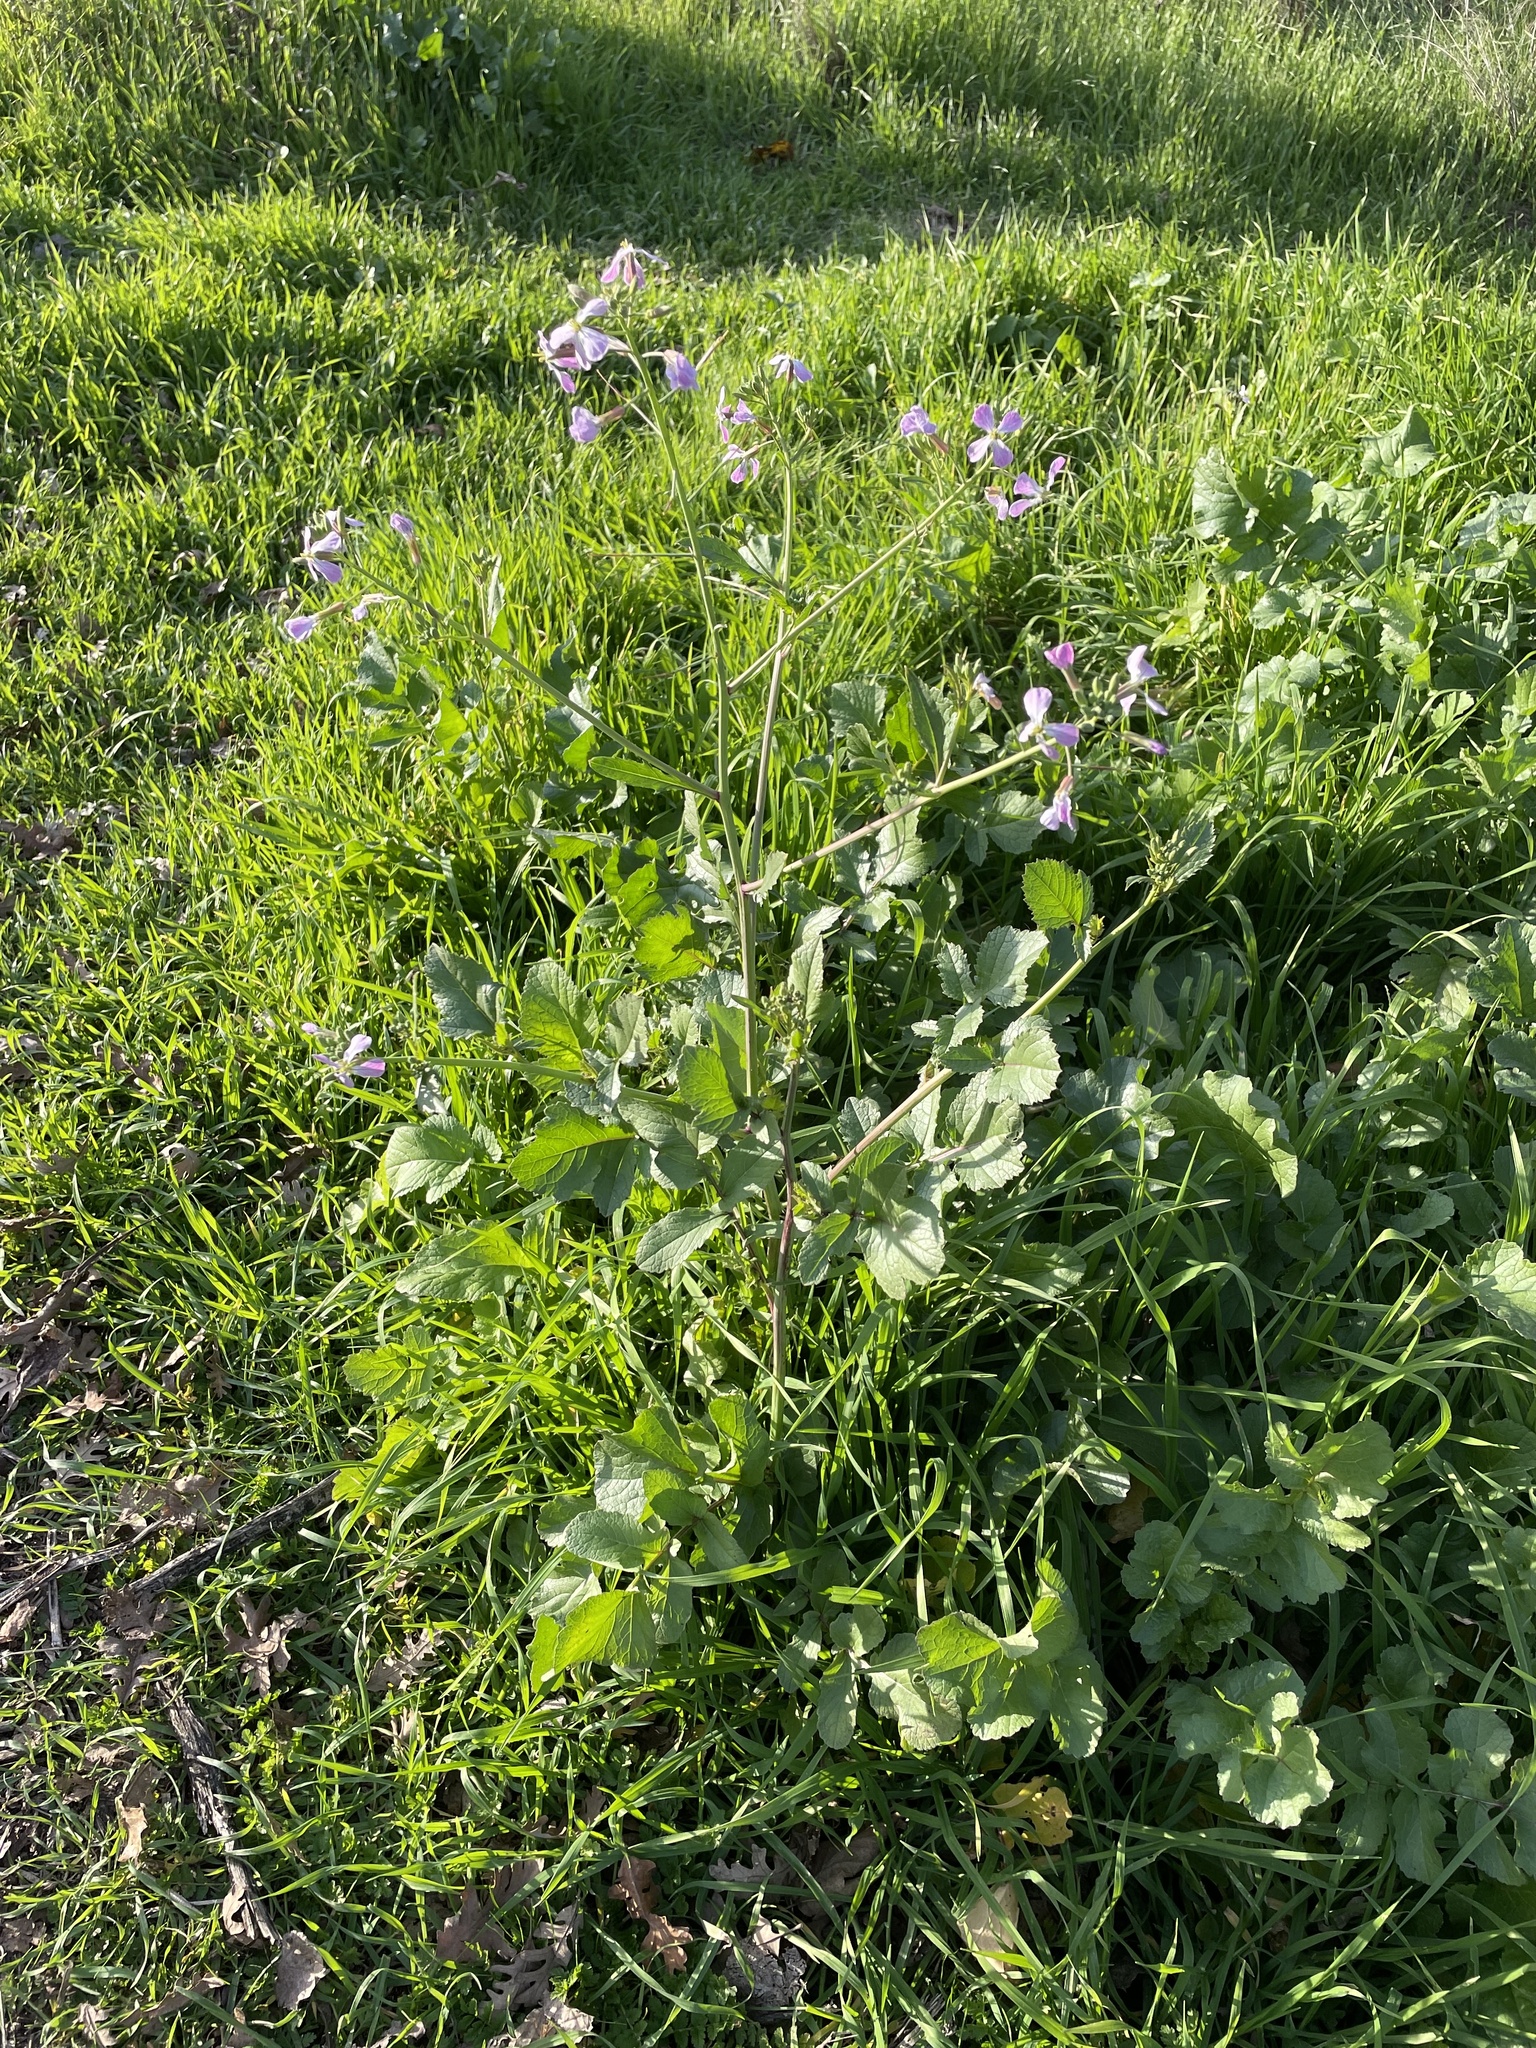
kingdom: Plantae
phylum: Tracheophyta
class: Magnoliopsida
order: Brassicales
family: Brassicaceae
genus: Raphanus
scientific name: Raphanus sativus
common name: Cultivated radish
